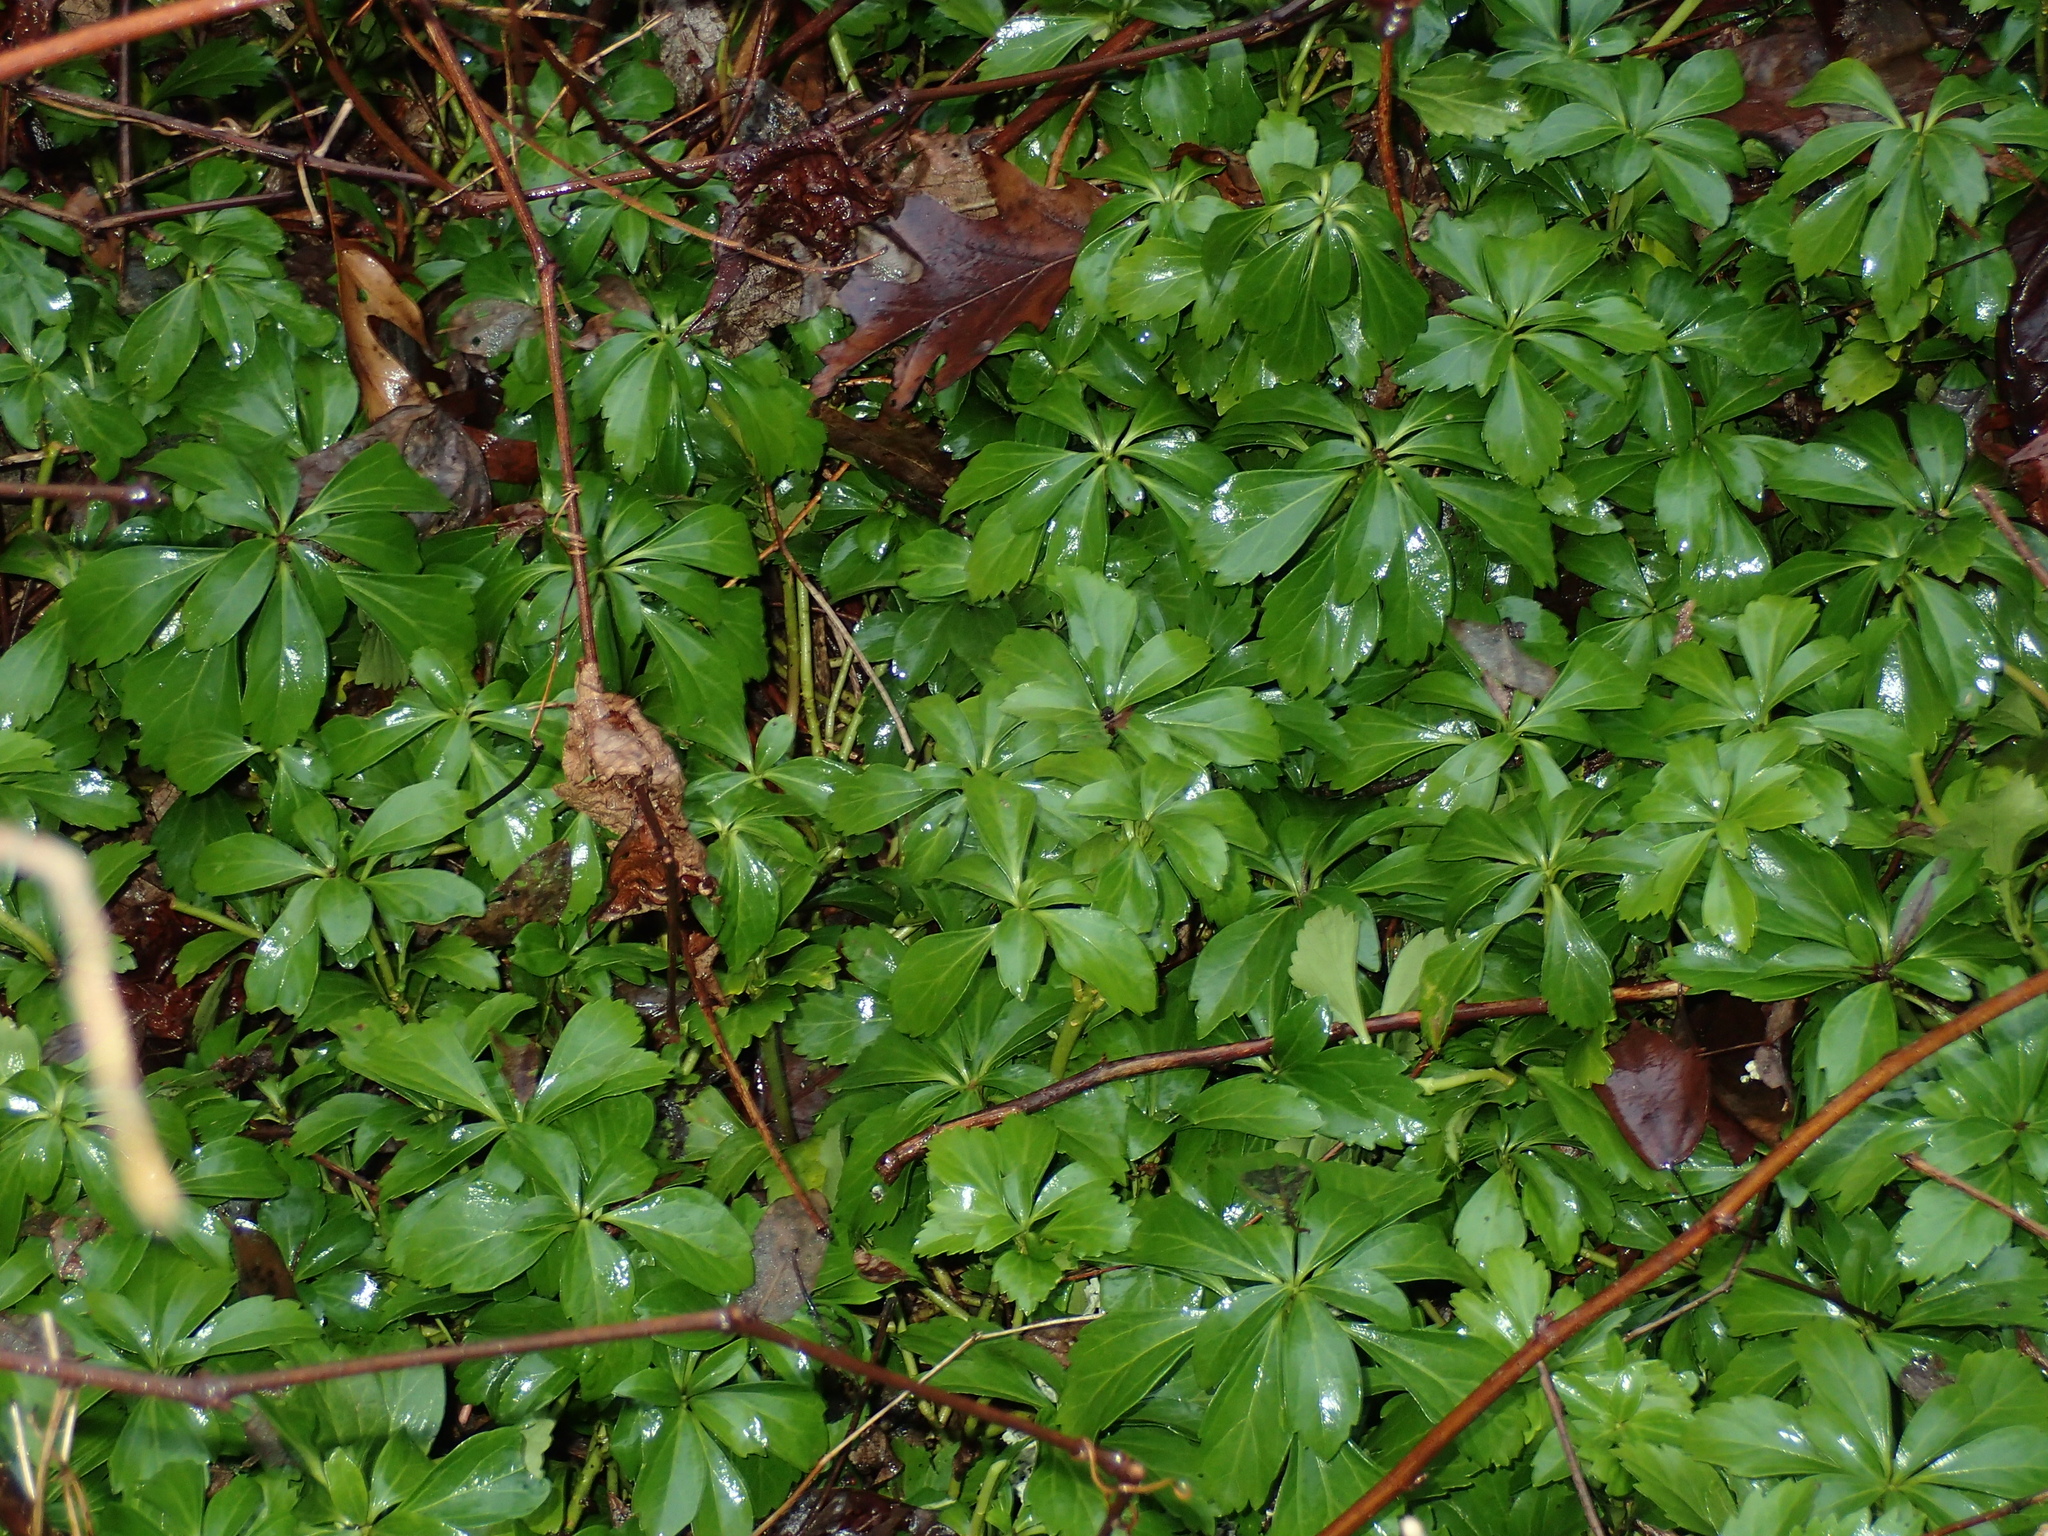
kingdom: Plantae
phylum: Tracheophyta
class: Magnoliopsida
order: Buxales
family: Buxaceae
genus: Pachysandra
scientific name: Pachysandra terminalis
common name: Japanese pachysandra
